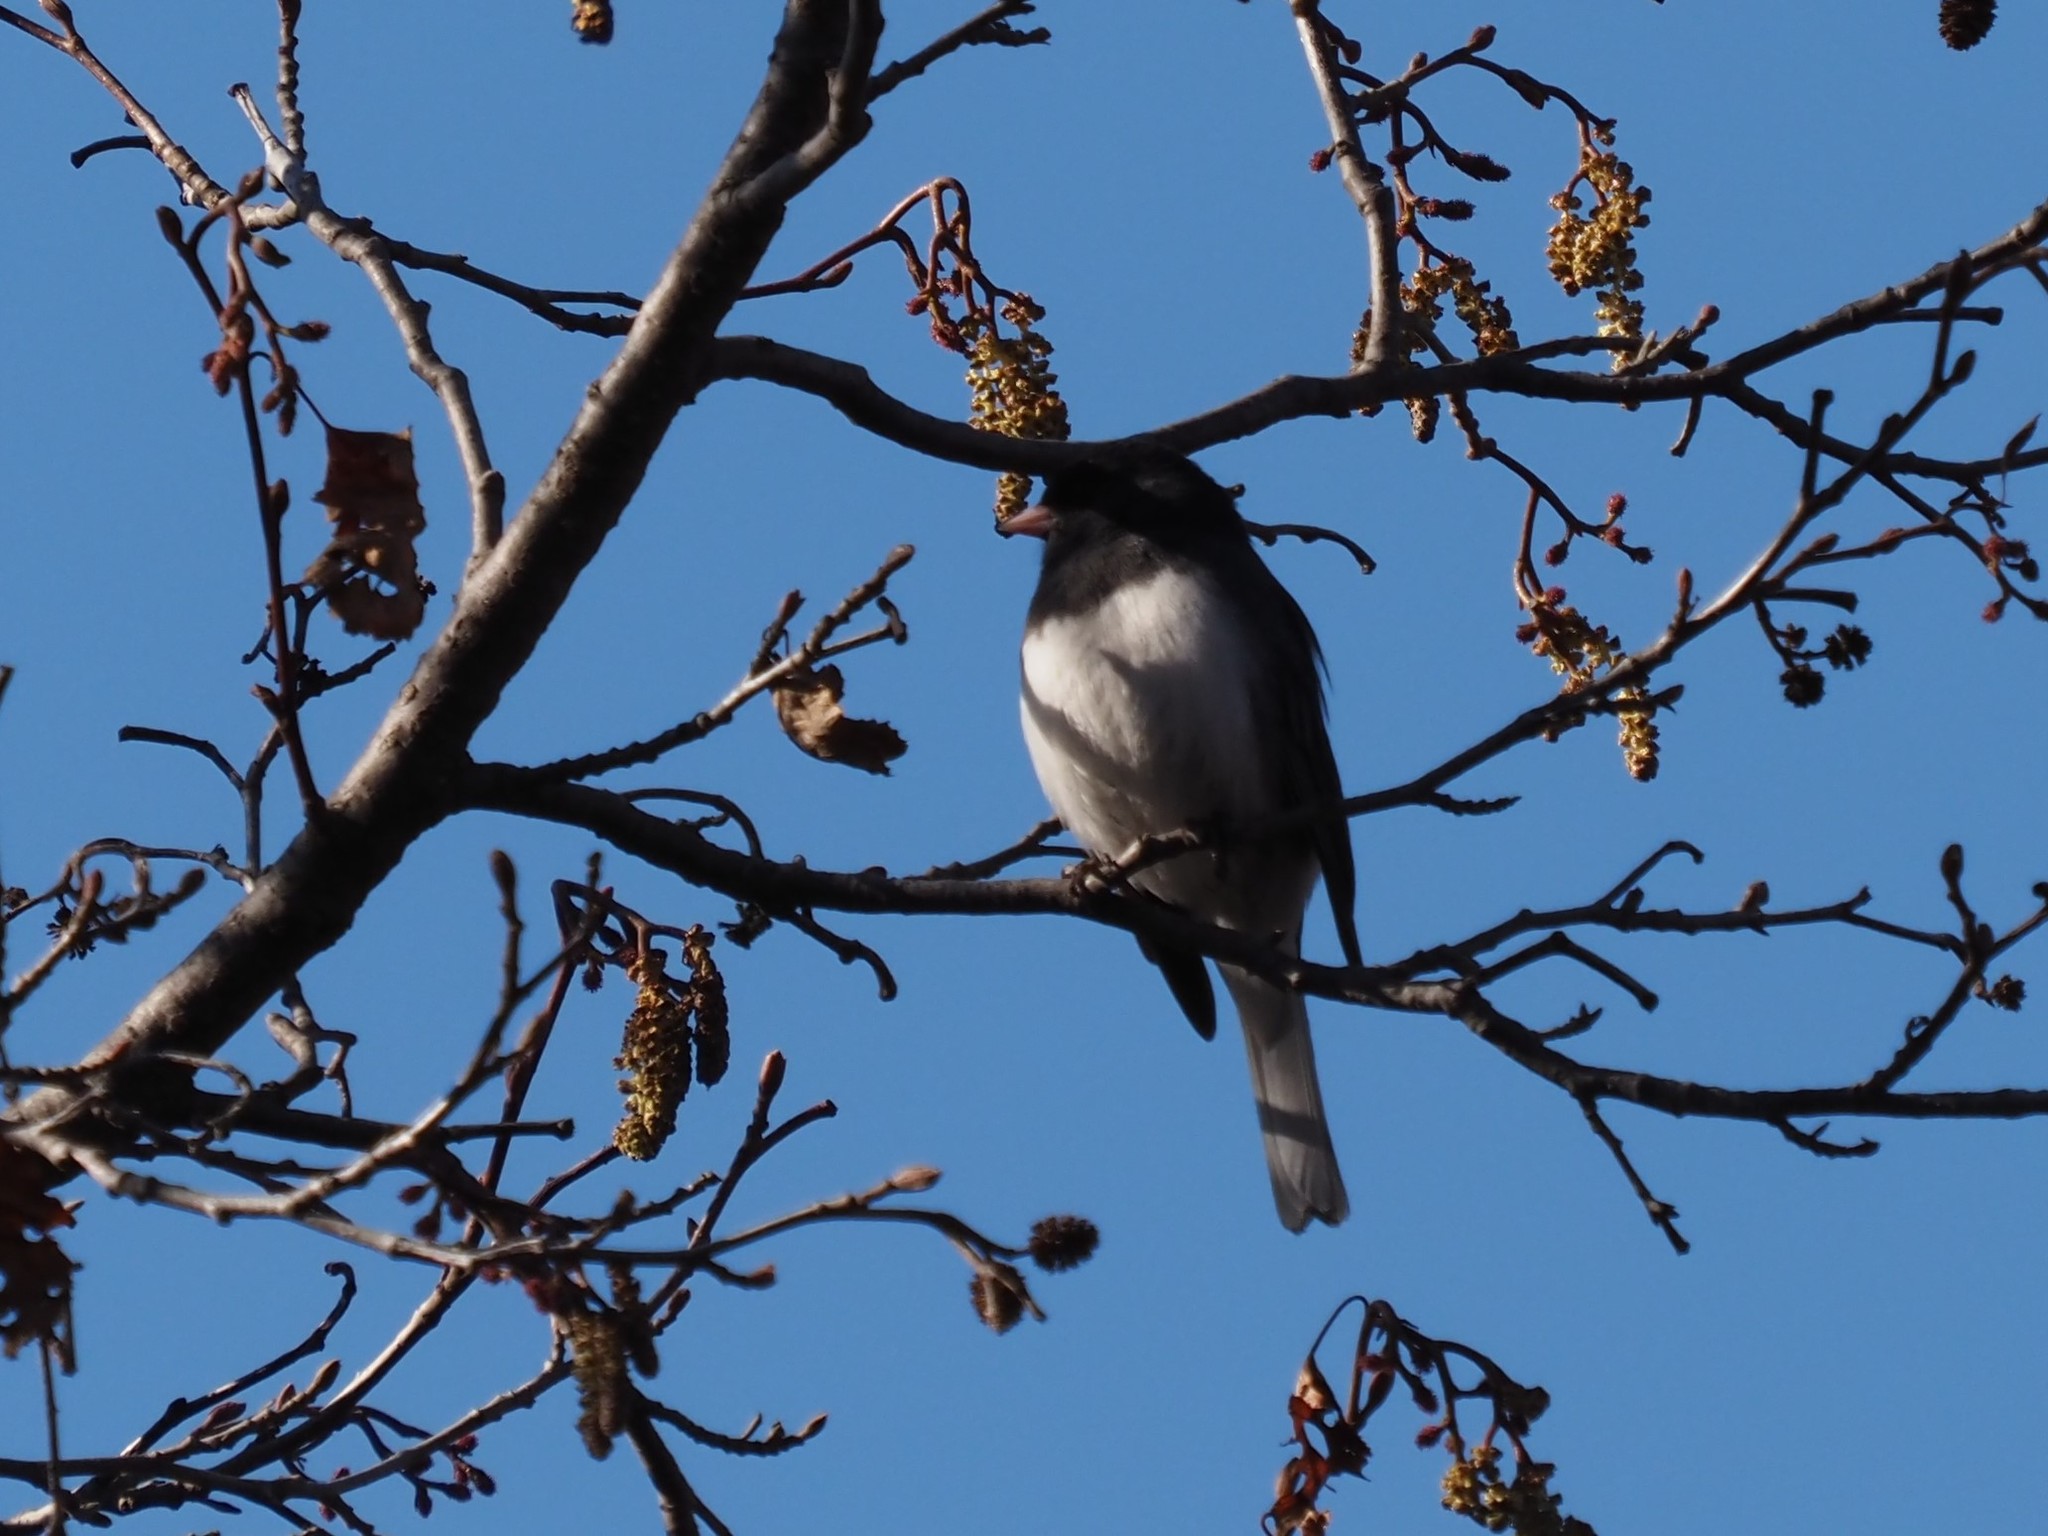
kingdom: Animalia
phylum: Chordata
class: Aves
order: Passeriformes
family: Passerellidae
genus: Junco
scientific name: Junco hyemalis
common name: Dark-eyed junco
